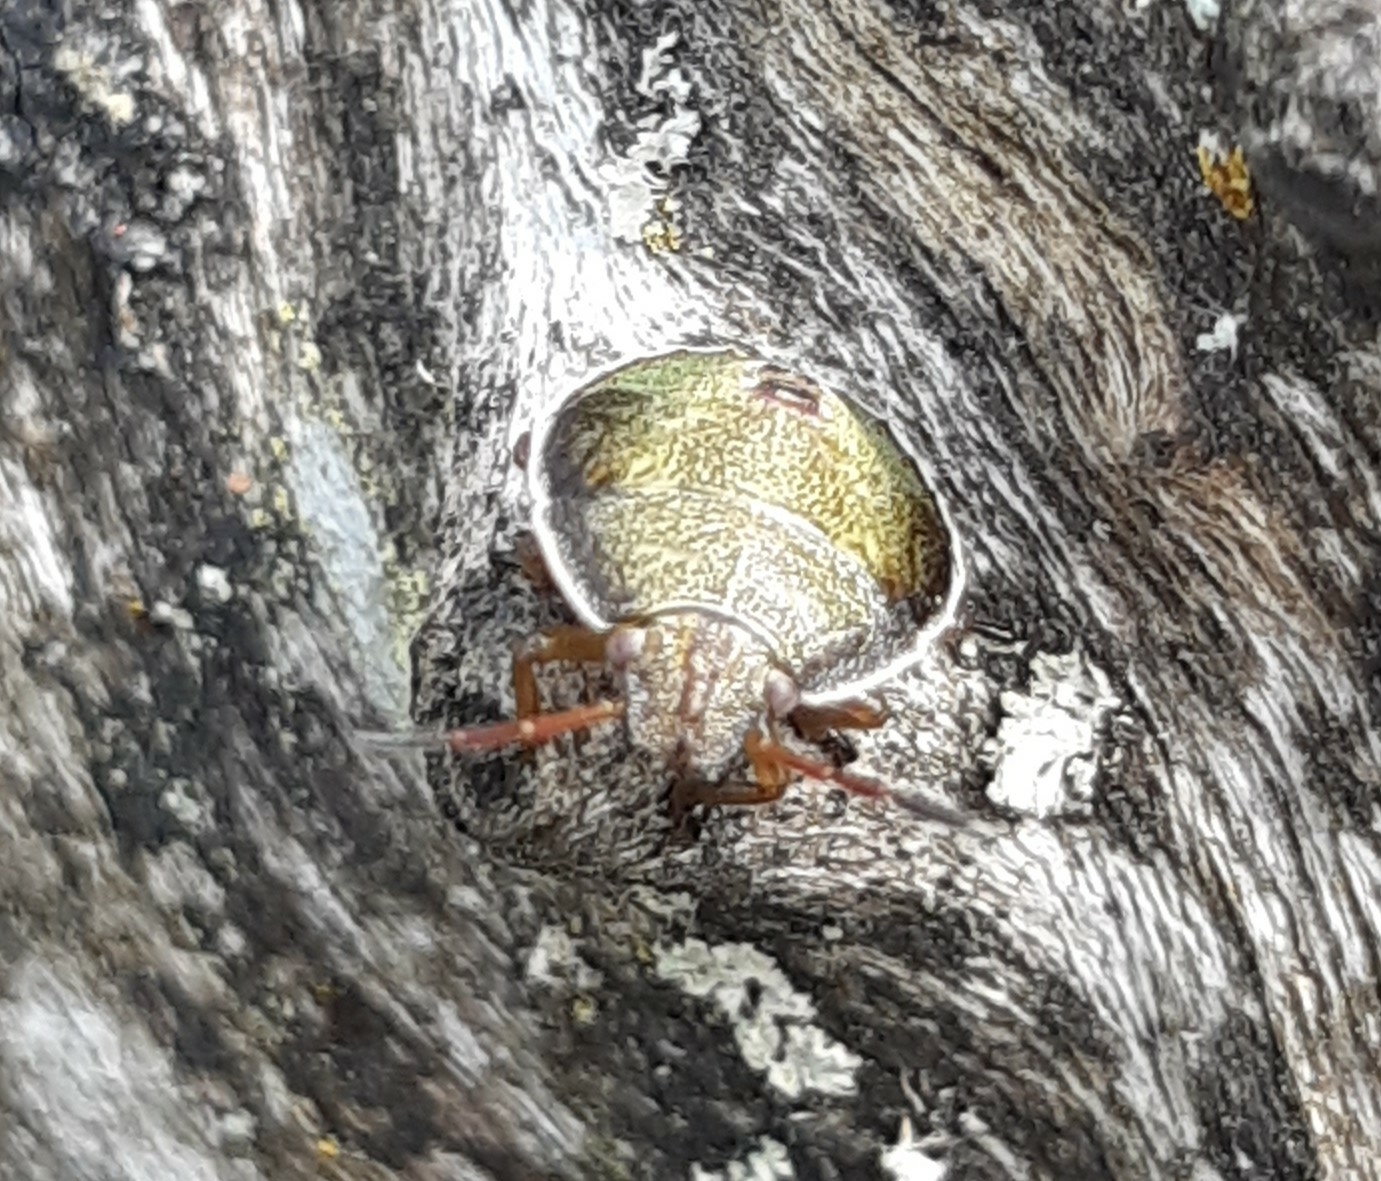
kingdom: Animalia
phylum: Arthropoda
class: Insecta
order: Hemiptera
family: Pentatomidae
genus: Piezodorus
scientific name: Piezodorus lituratus
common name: Stink bug
